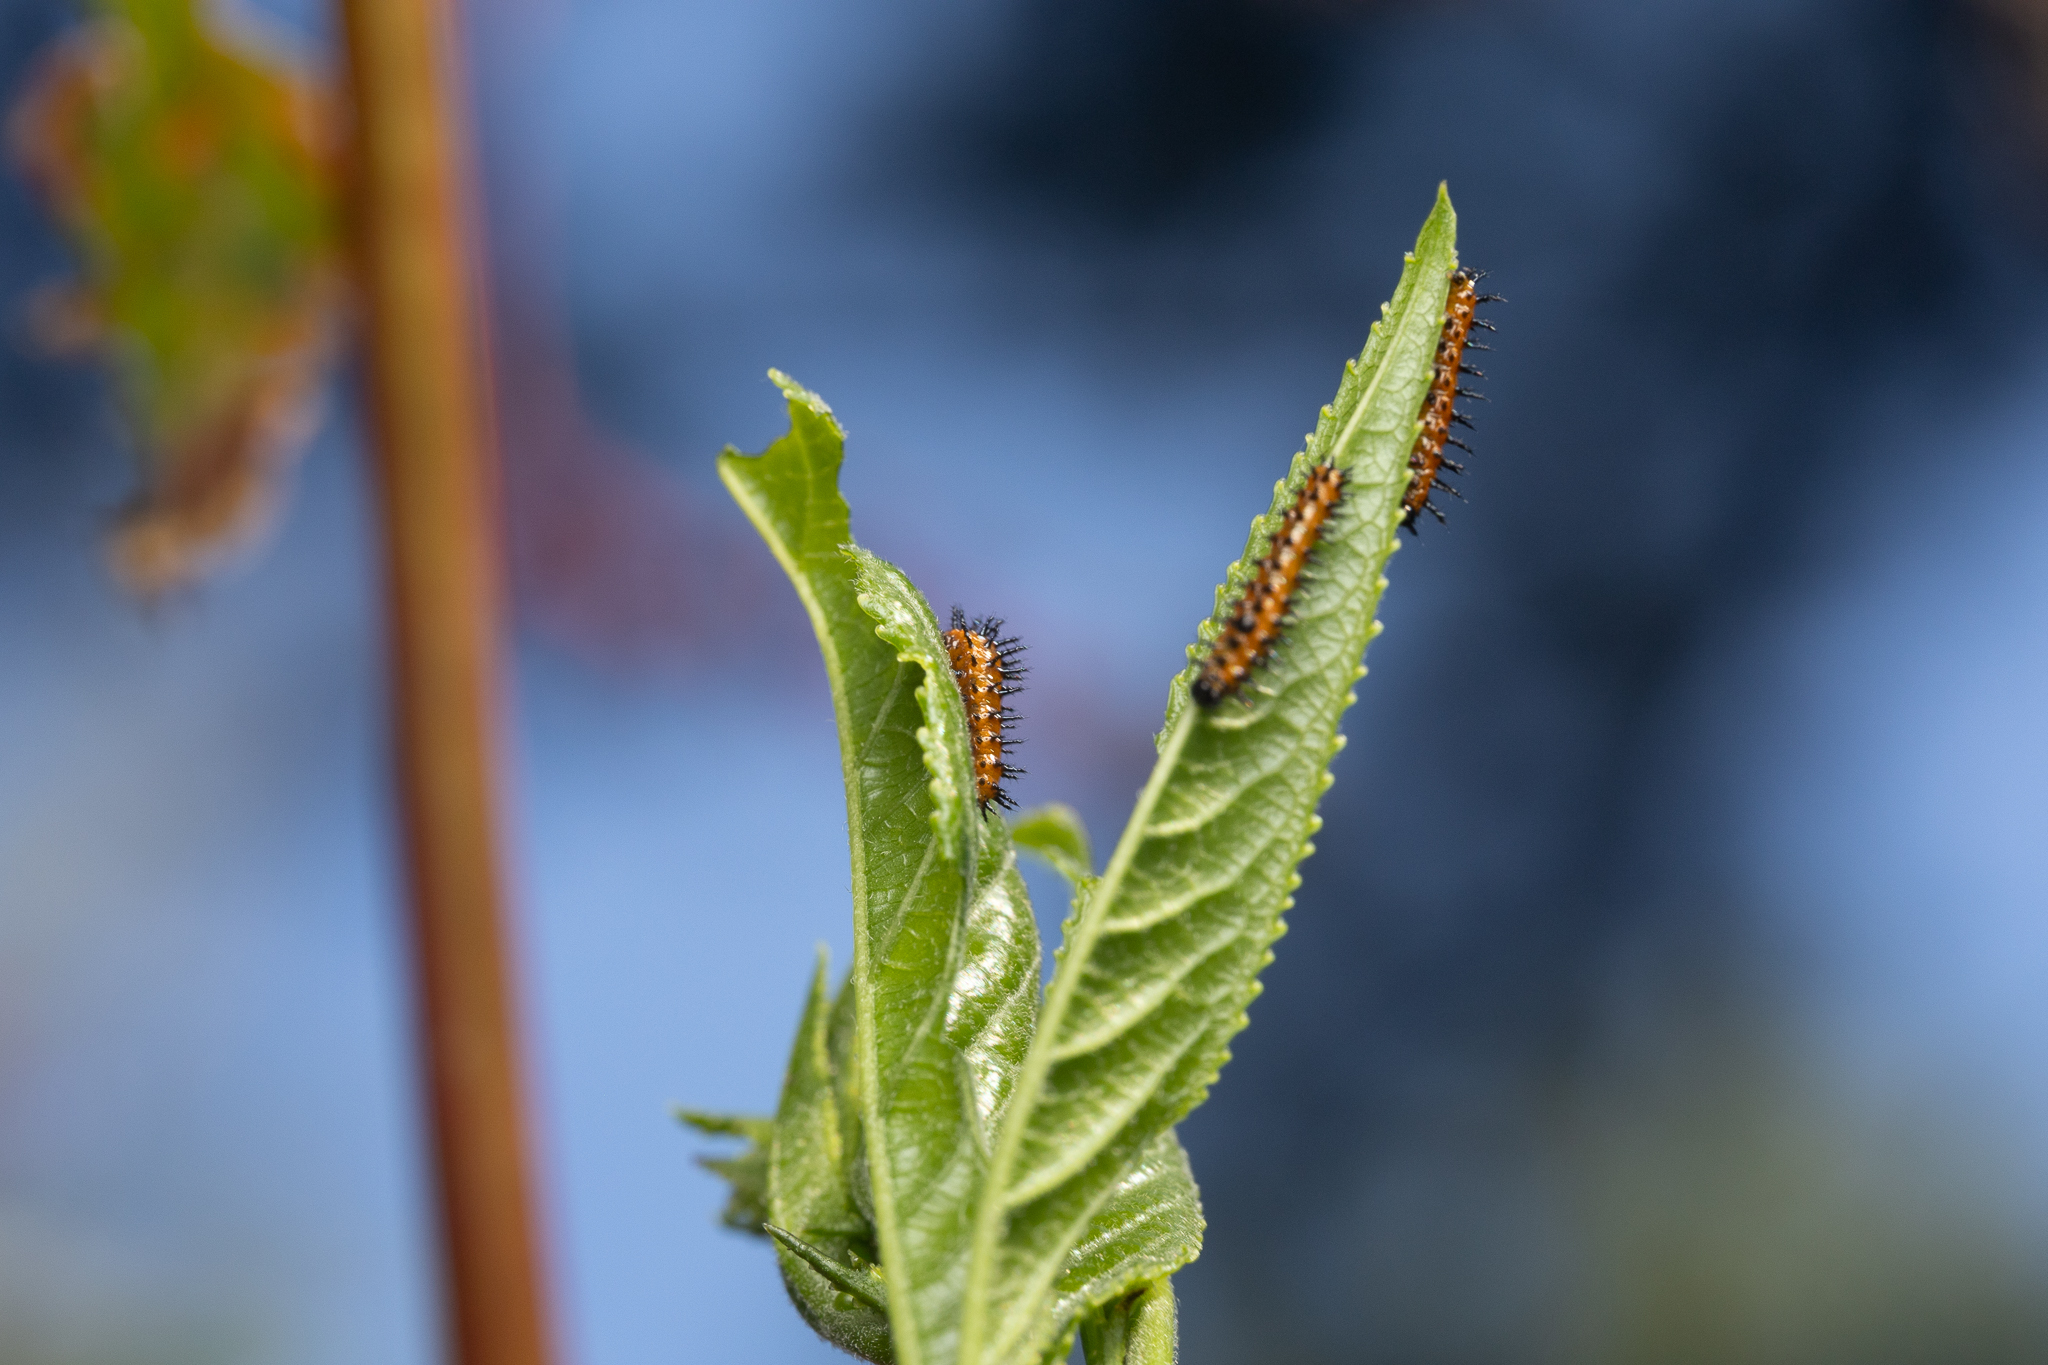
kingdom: Animalia
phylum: Arthropoda
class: Insecta
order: Lepidoptera
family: Nymphalidae
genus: Dione
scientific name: Dione vanillae
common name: Gulf fritillary
